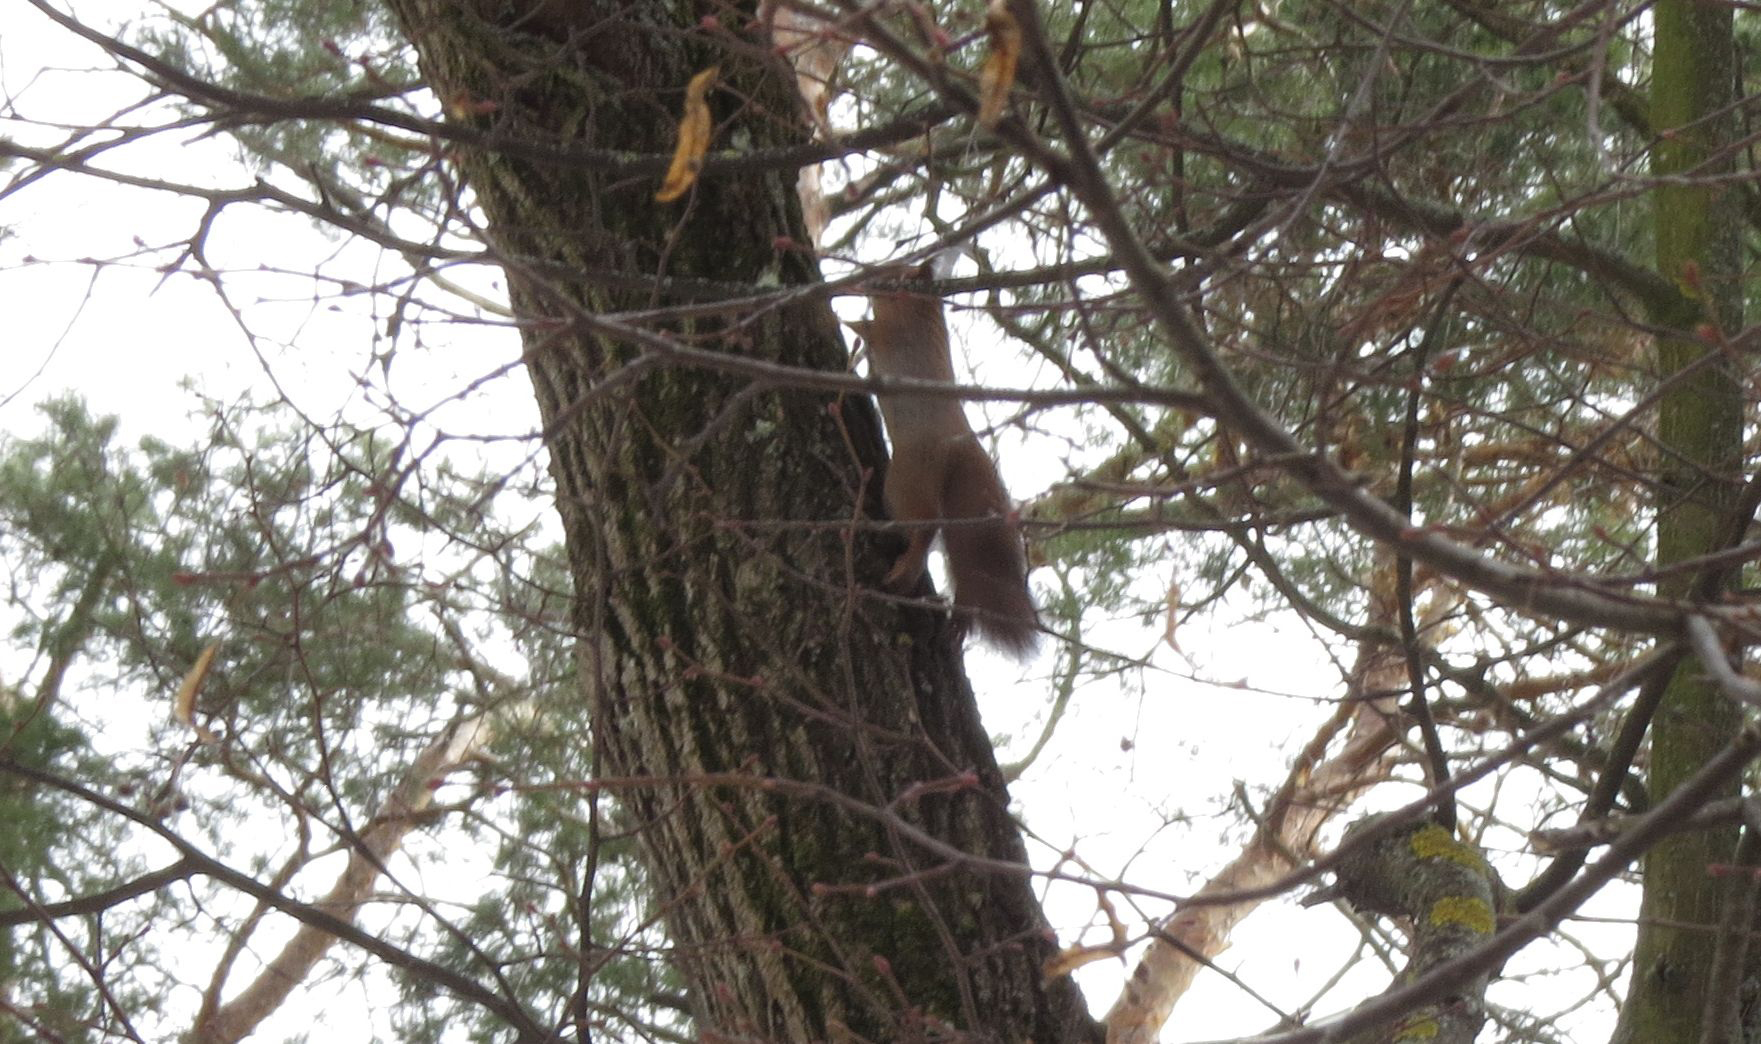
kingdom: Animalia
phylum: Chordata
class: Mammalia
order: Rodentia
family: Sciuridae
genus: Sciurus
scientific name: Sciurus vulgaris
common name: Eurasian red squirrel
